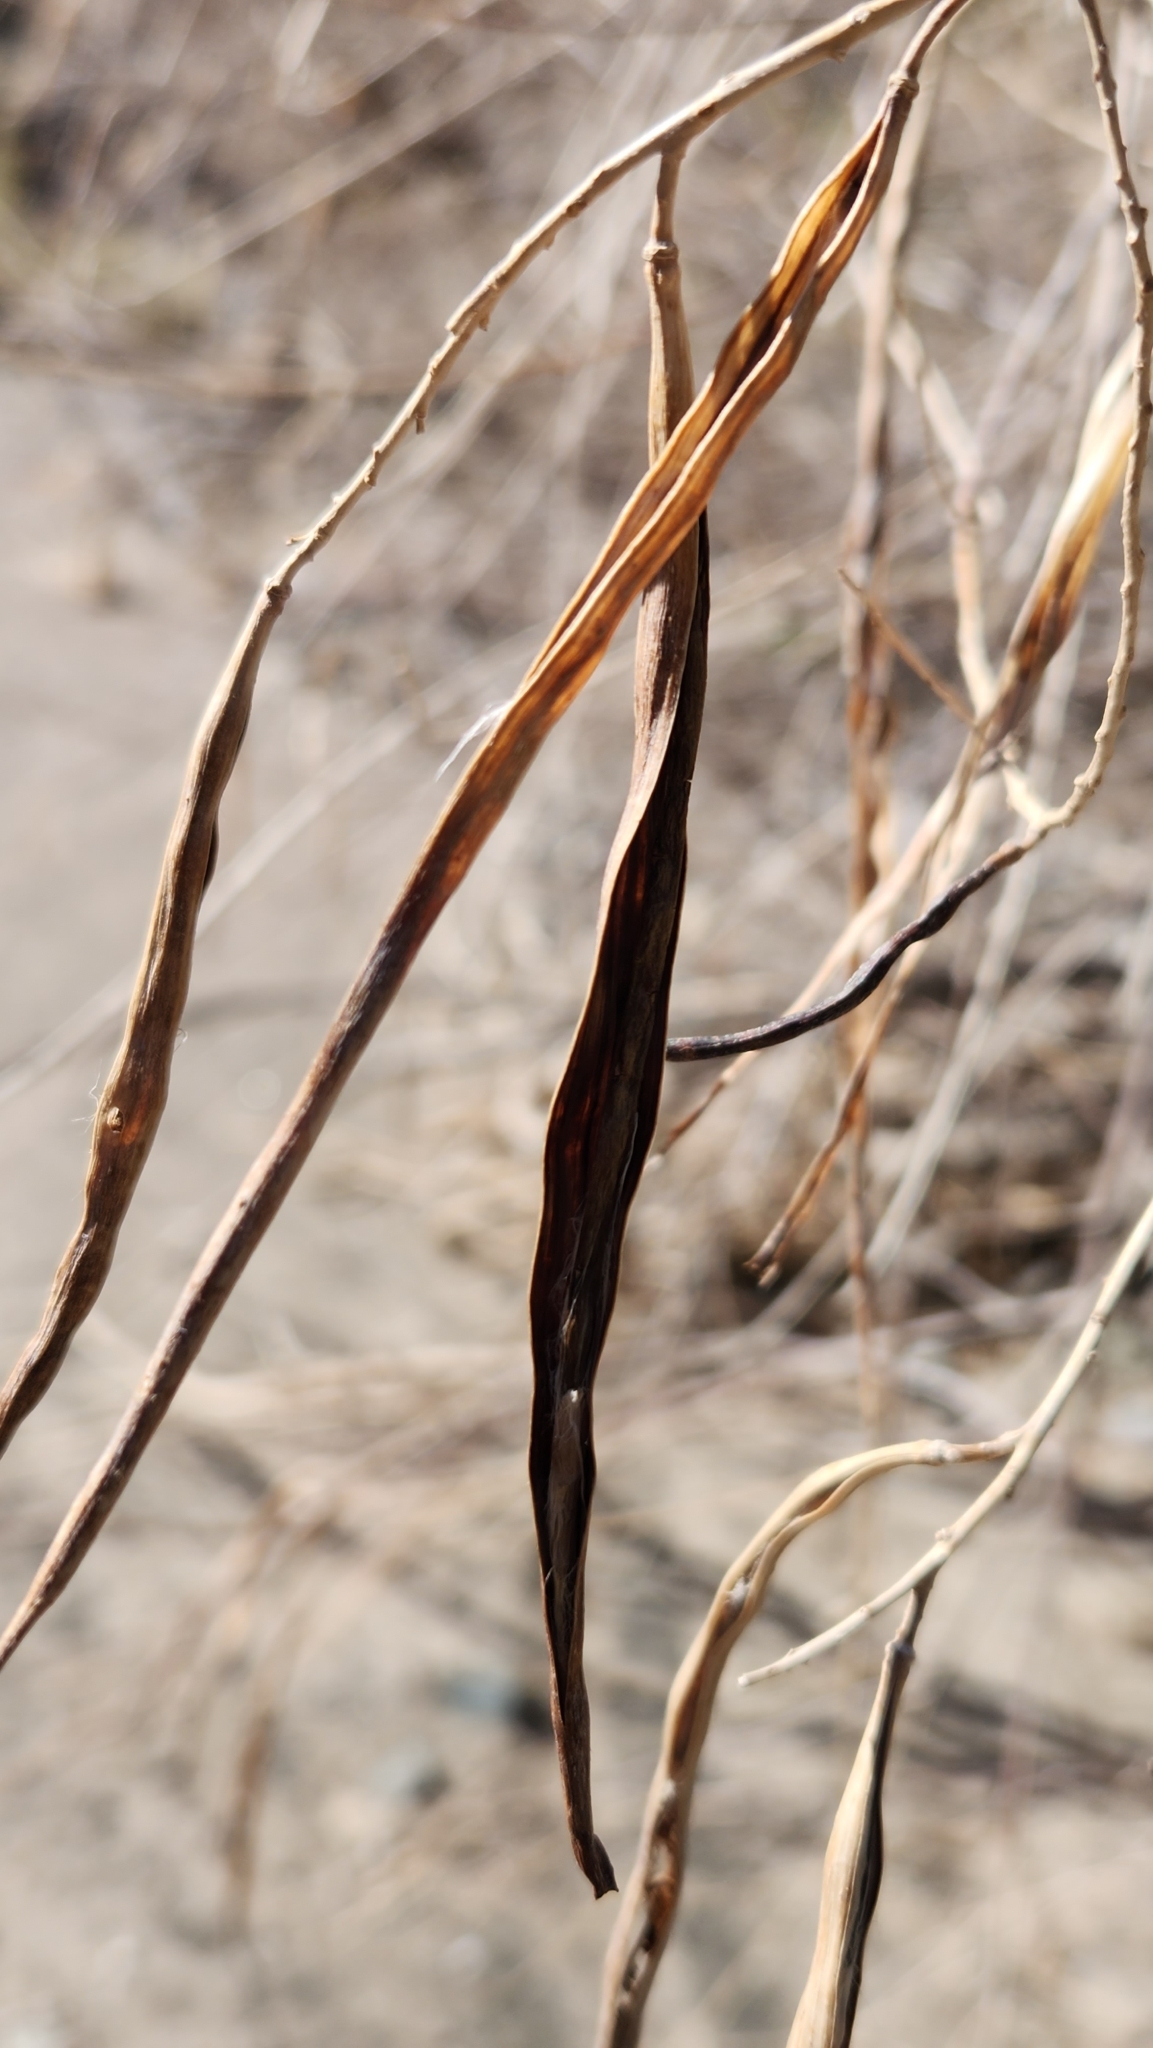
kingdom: Plantae
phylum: Tracheophyta
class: Magnoliopsida
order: Lamiales
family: Bignoniaceae
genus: Chilopsis
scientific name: Chilopsis linearis
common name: Desert-willow
